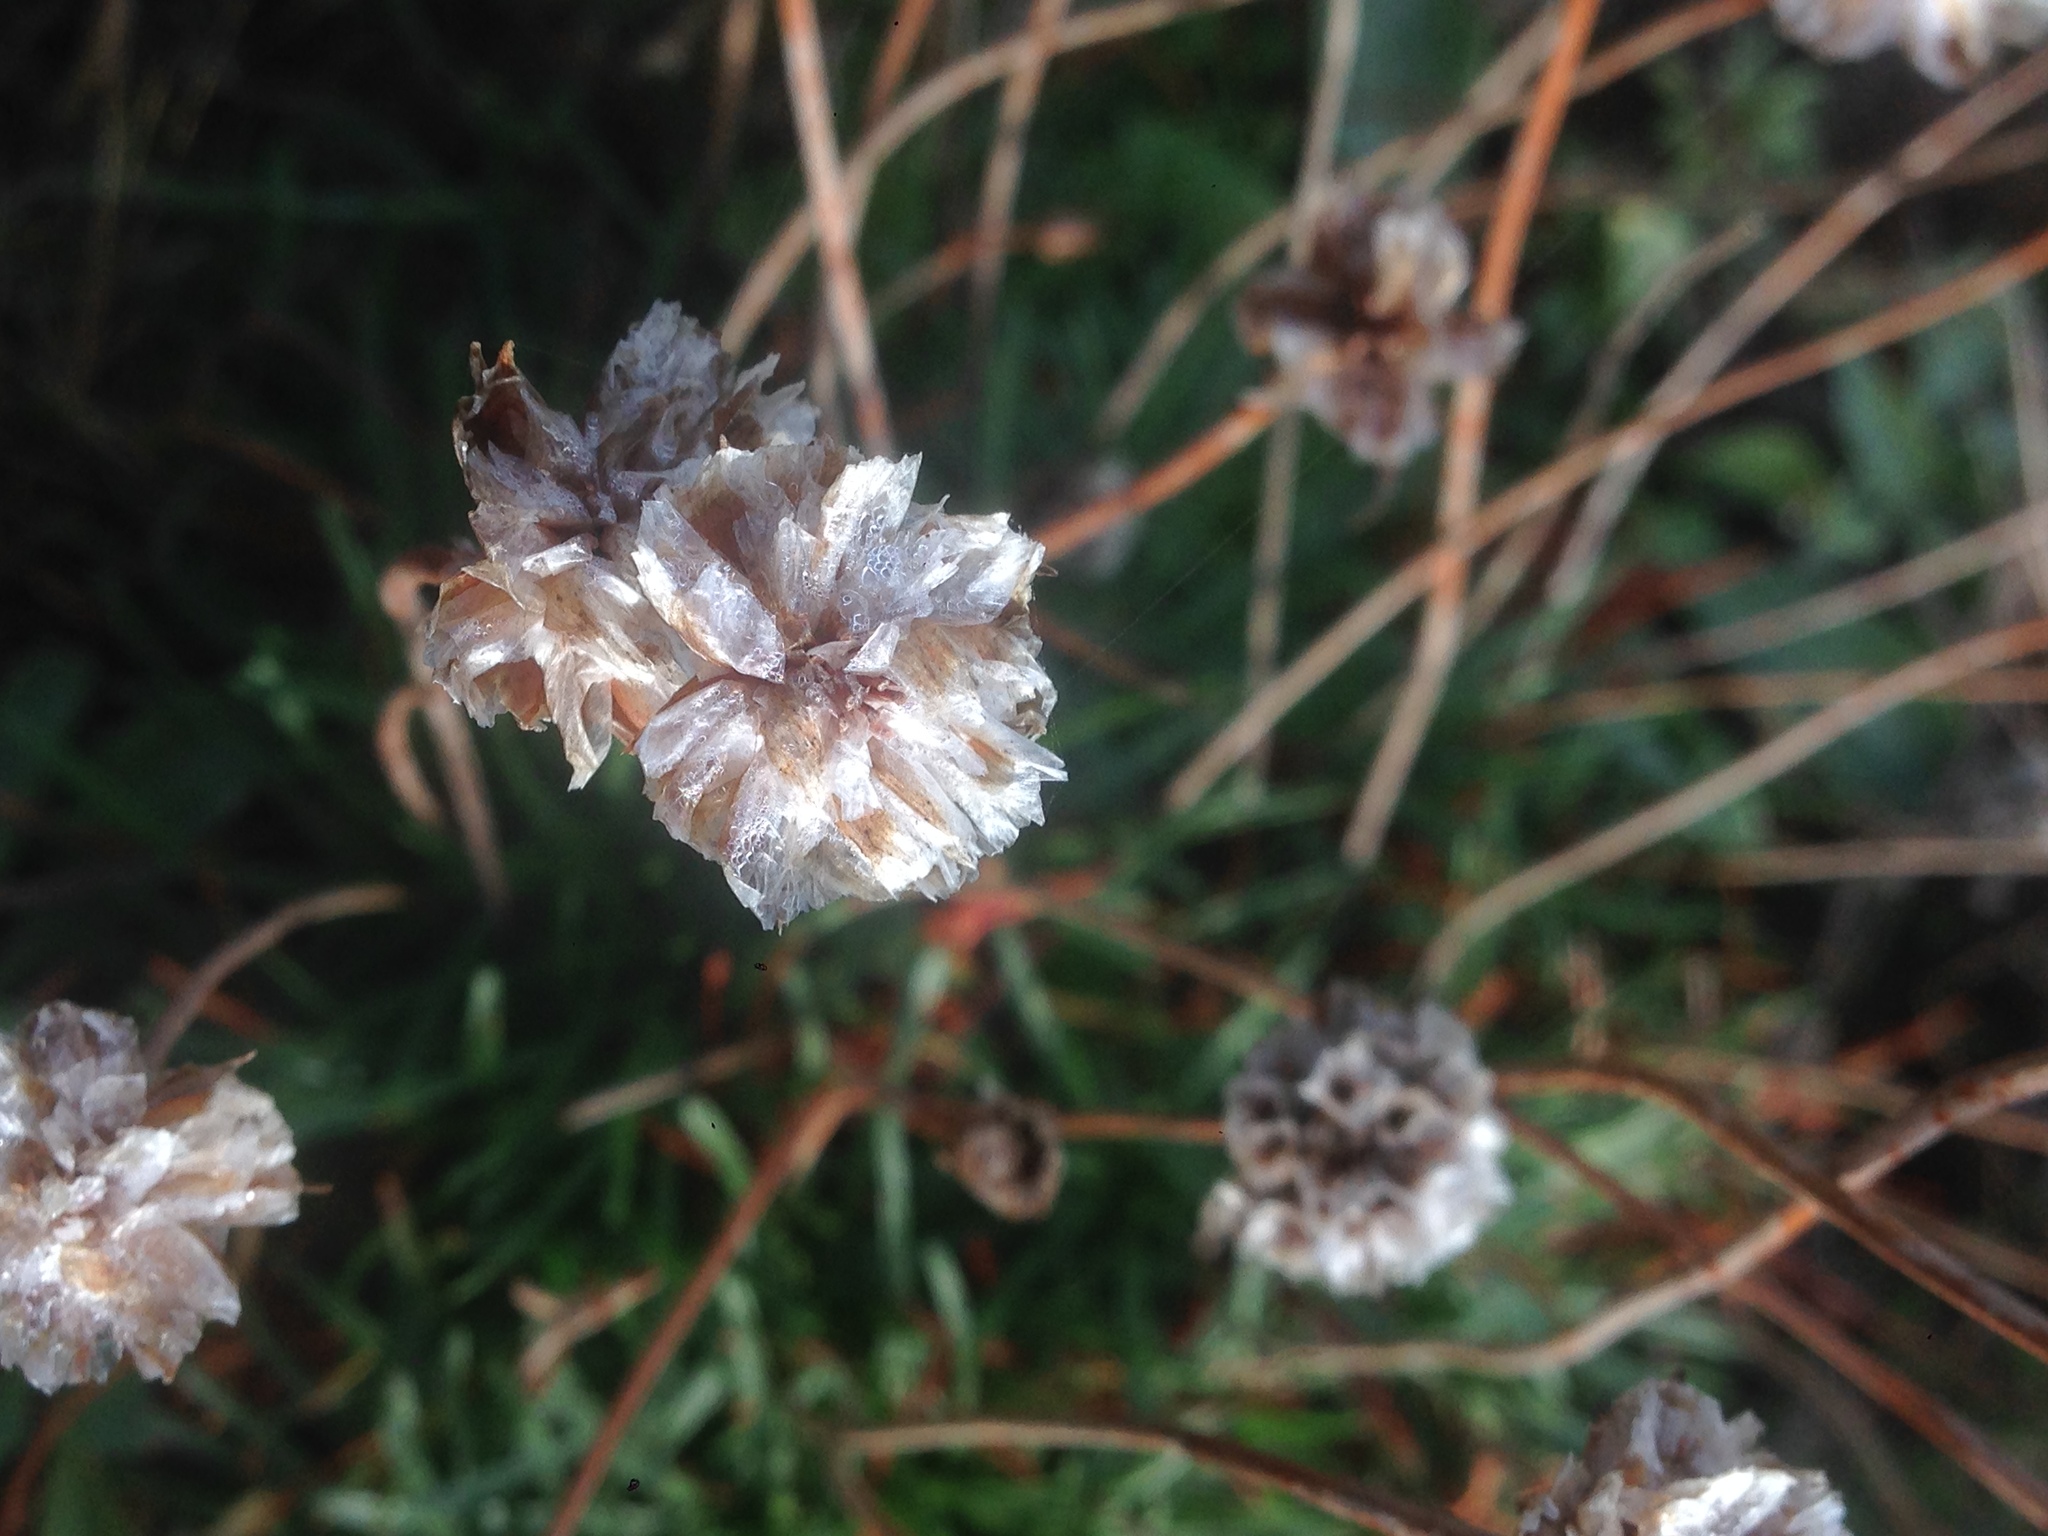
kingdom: Plantae
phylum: Tracheophyta
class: Magnoliopsida
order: Caryophyllales
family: Plumbaginaceae
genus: Armeria
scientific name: Armeria maritima
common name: Thrift
